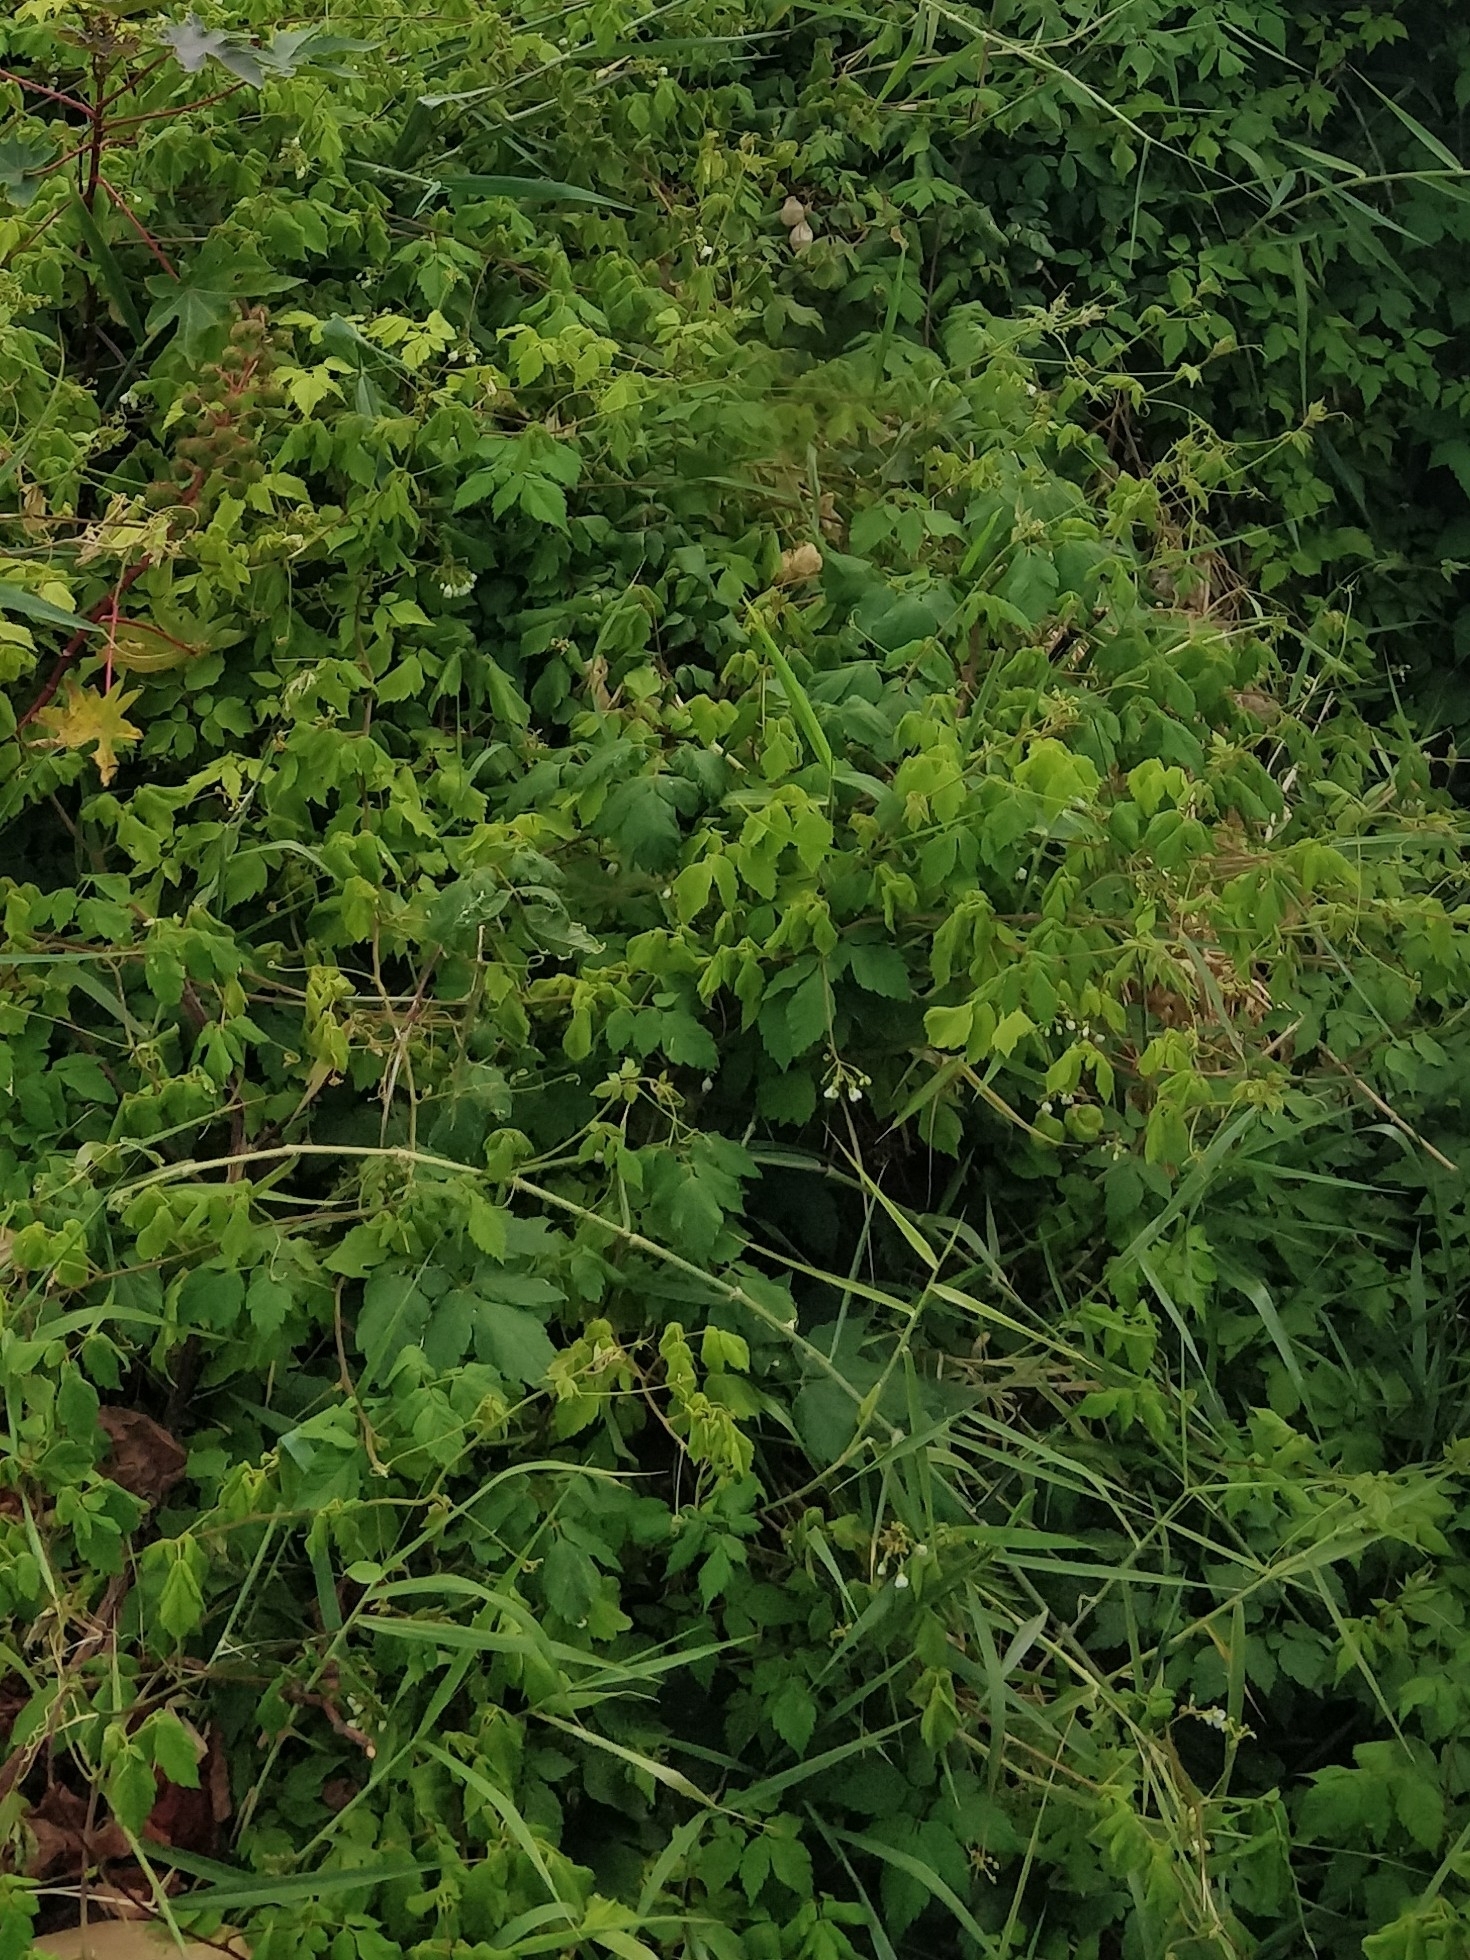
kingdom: Plantae
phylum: Tracheophyta
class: Magnoliopsida
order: Sapindales
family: Sapindaceae
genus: Cardiospermum
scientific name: Cardiospermum grandiflorum
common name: Balloon vine
